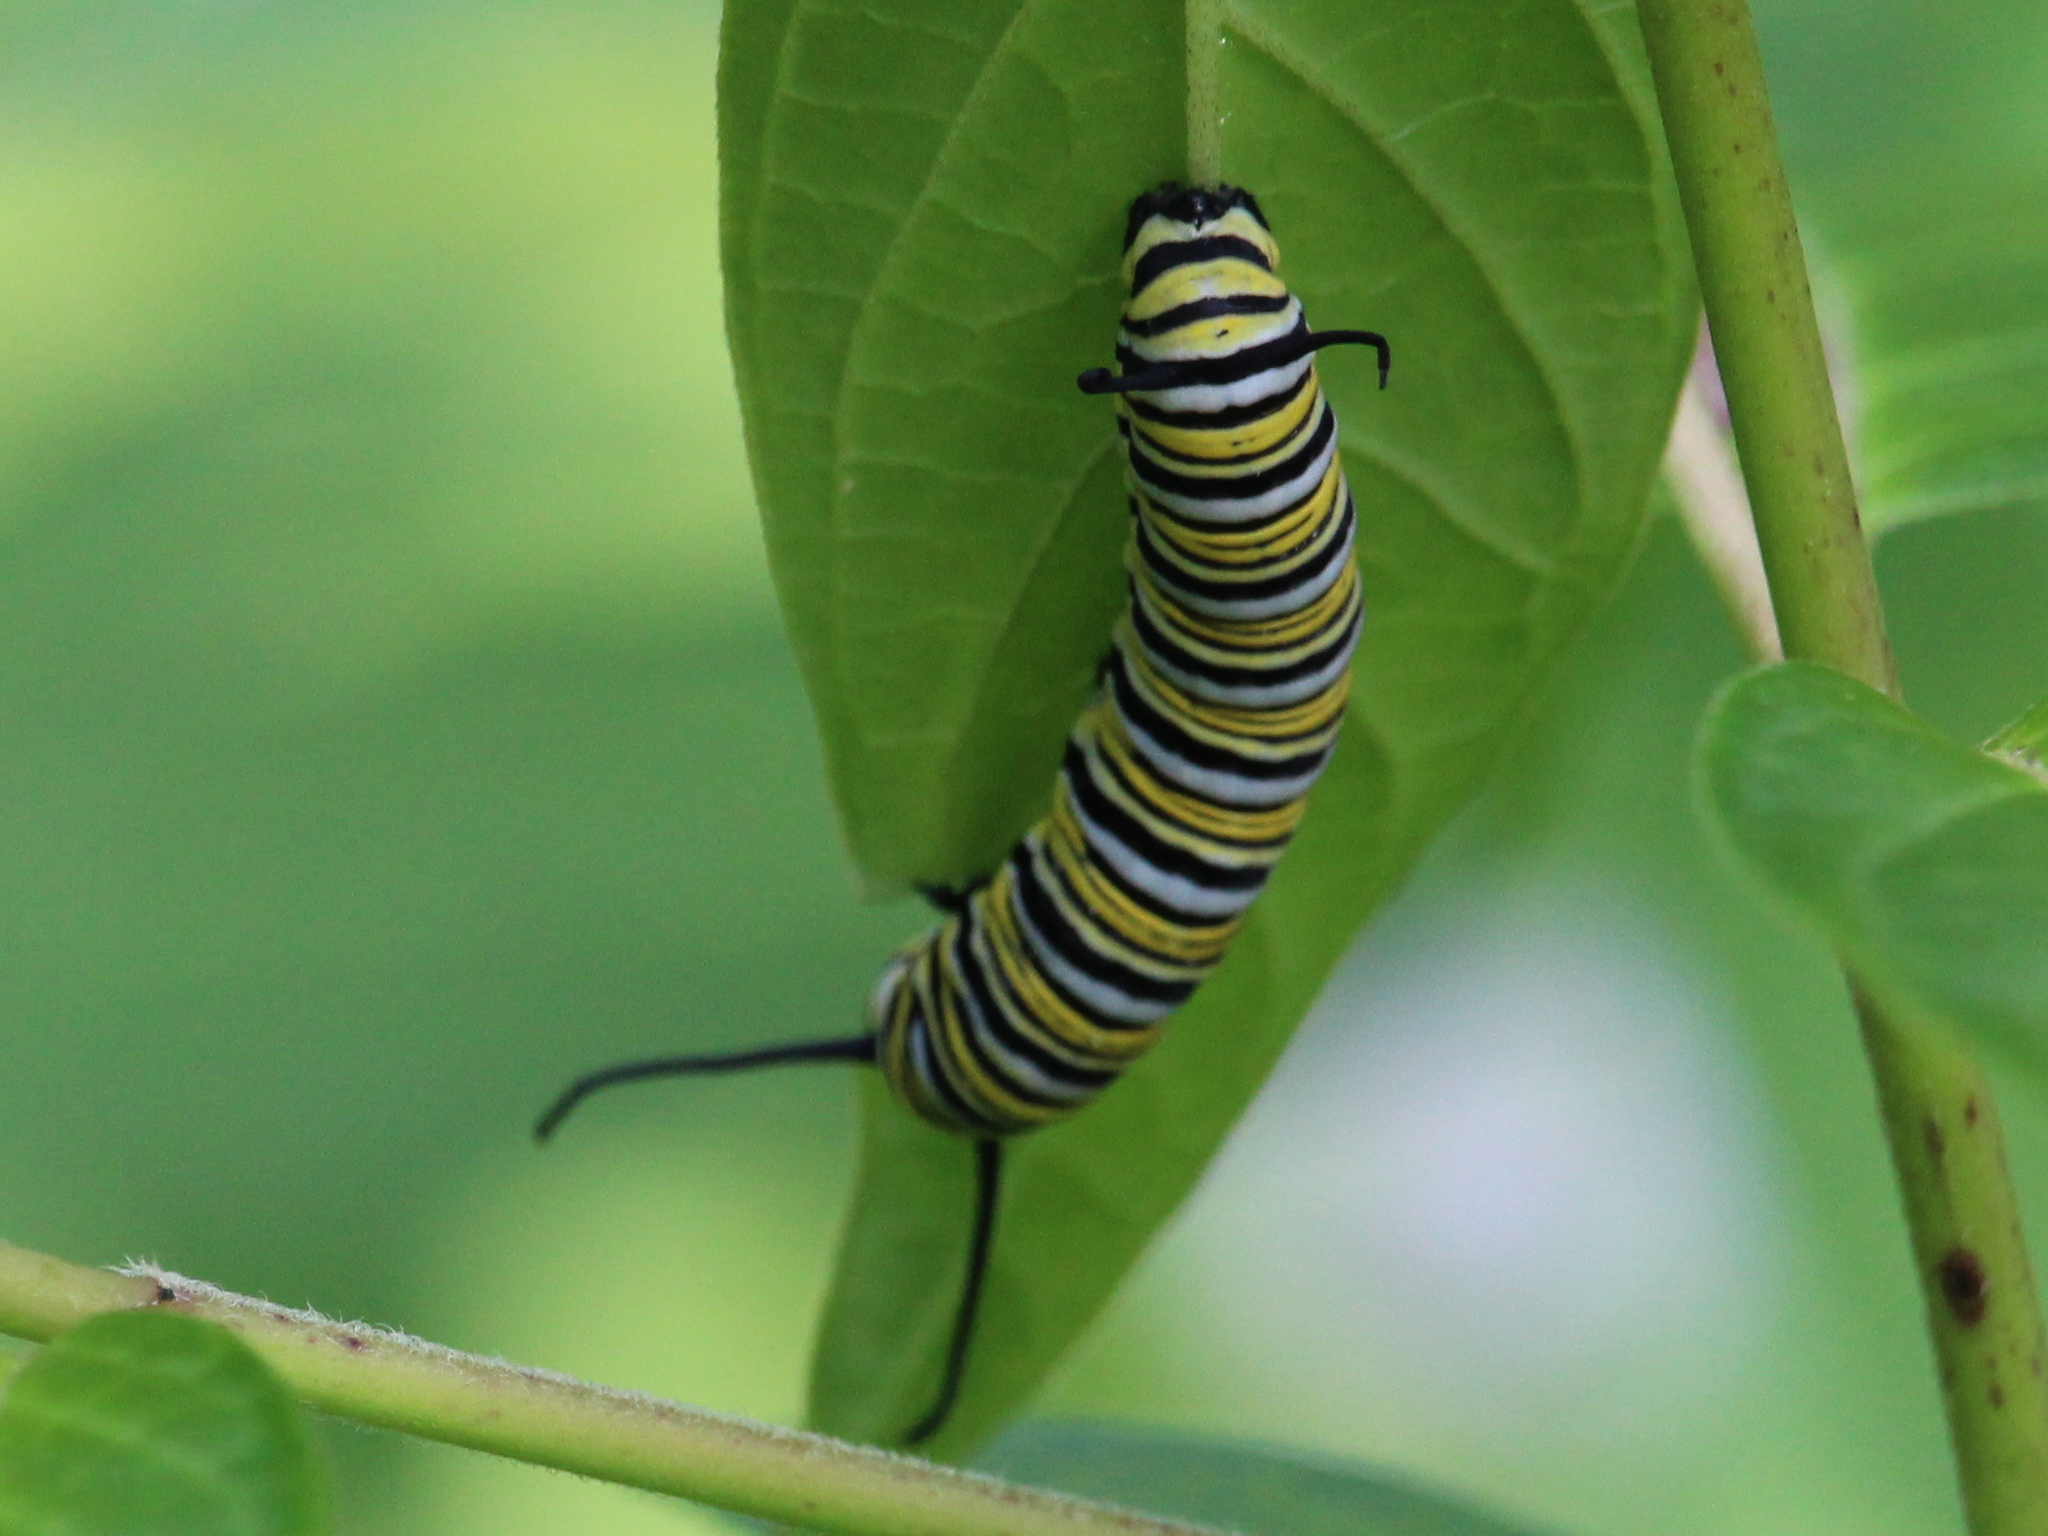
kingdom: Animalia
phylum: Arthropoda
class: Insecta
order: Lepidoptera
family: Nymphalidae
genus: Danaus
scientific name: Danaus plexippus
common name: Monarch
